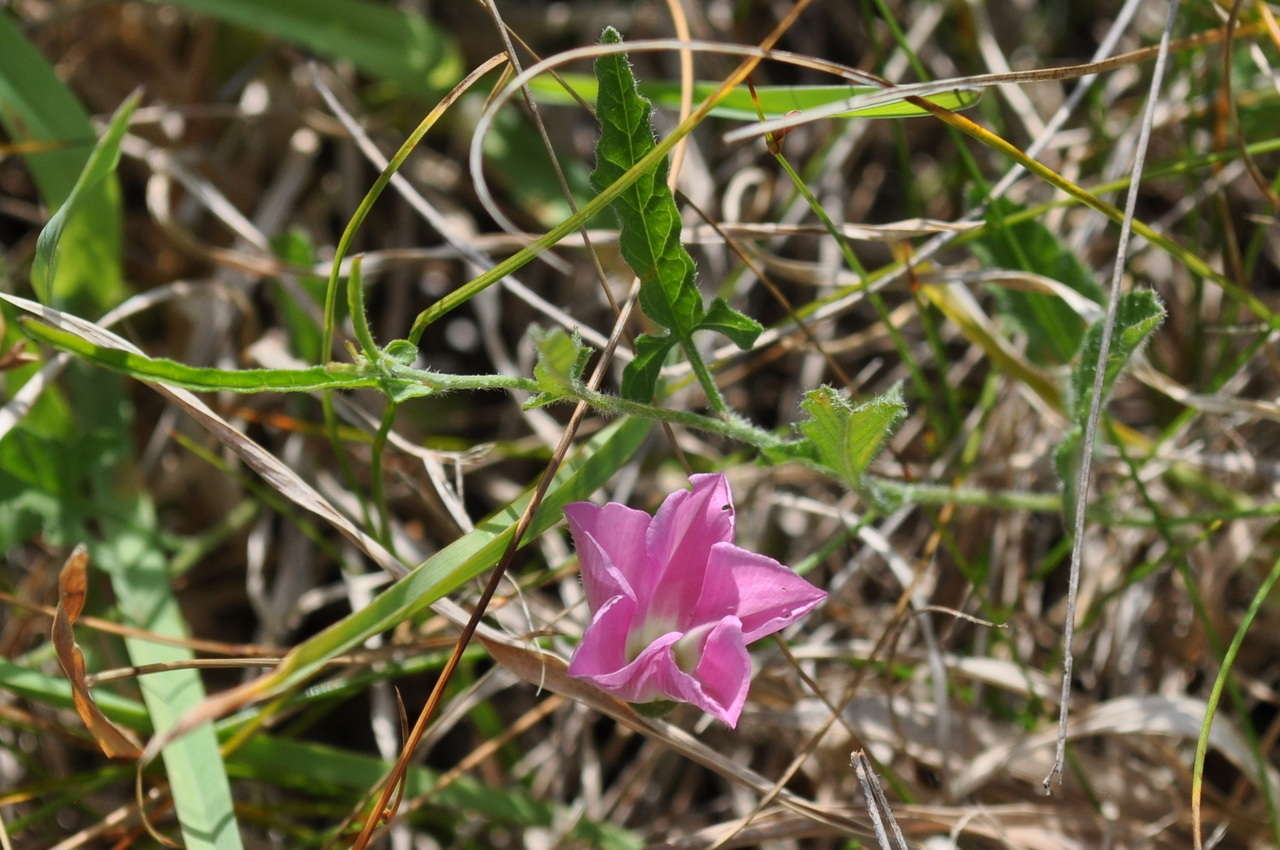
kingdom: Plantae
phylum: Tracheophyta
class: Magnoliopsida
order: Solanales
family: Convolvulaceae
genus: Convolvulus
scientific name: Convolvulus angustissimus
